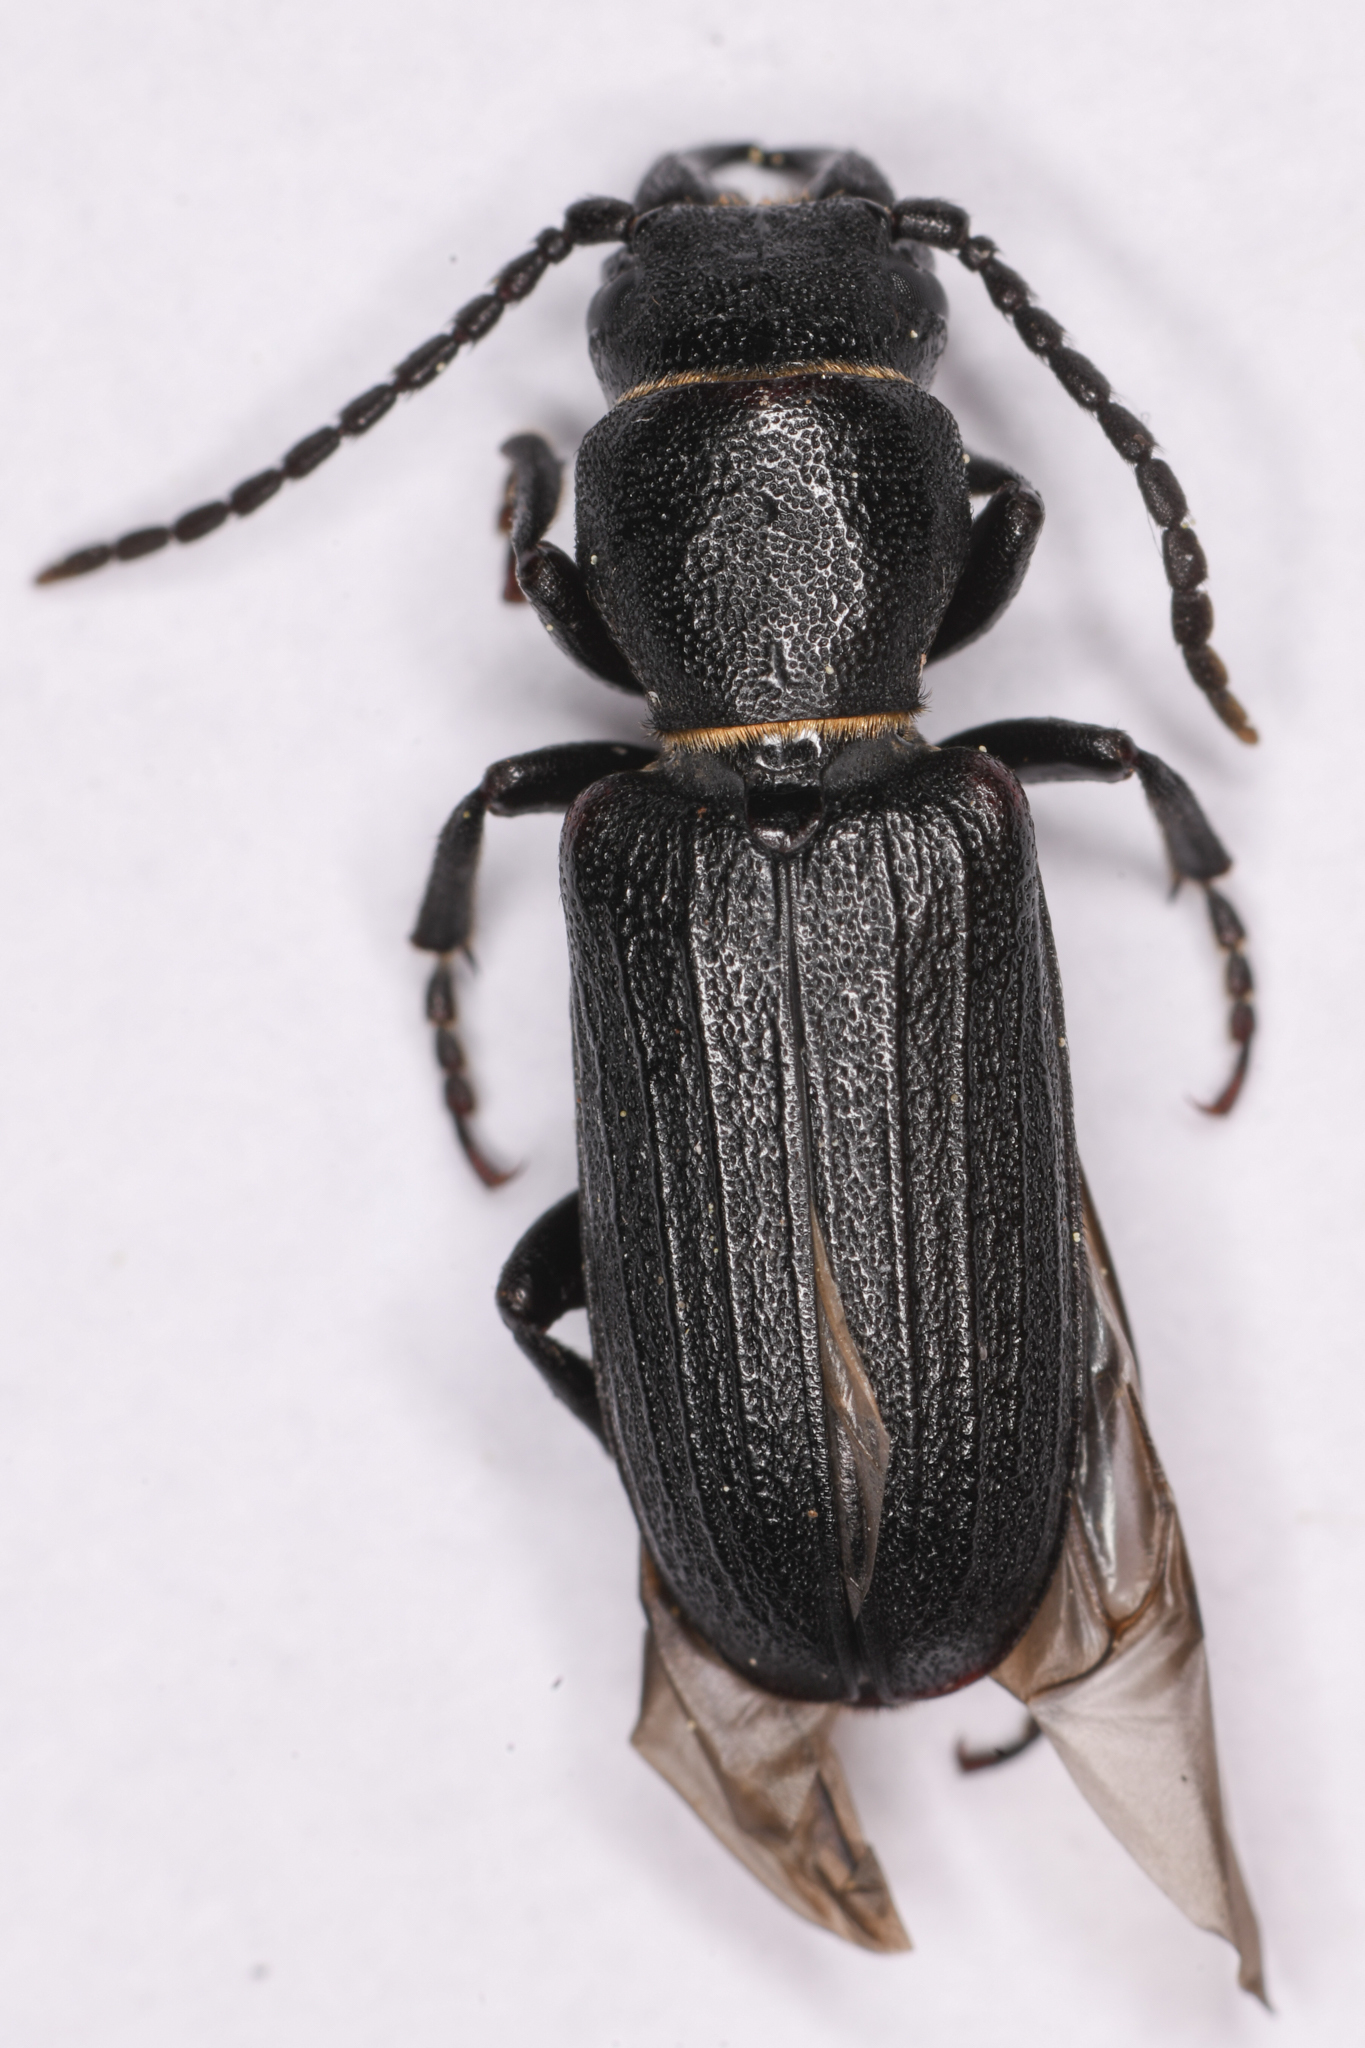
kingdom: Animalia
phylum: Arthropoda
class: Insecta
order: Coleoptera
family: Cerambycidae
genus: Neospondylis
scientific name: Neospondylis upiformis
